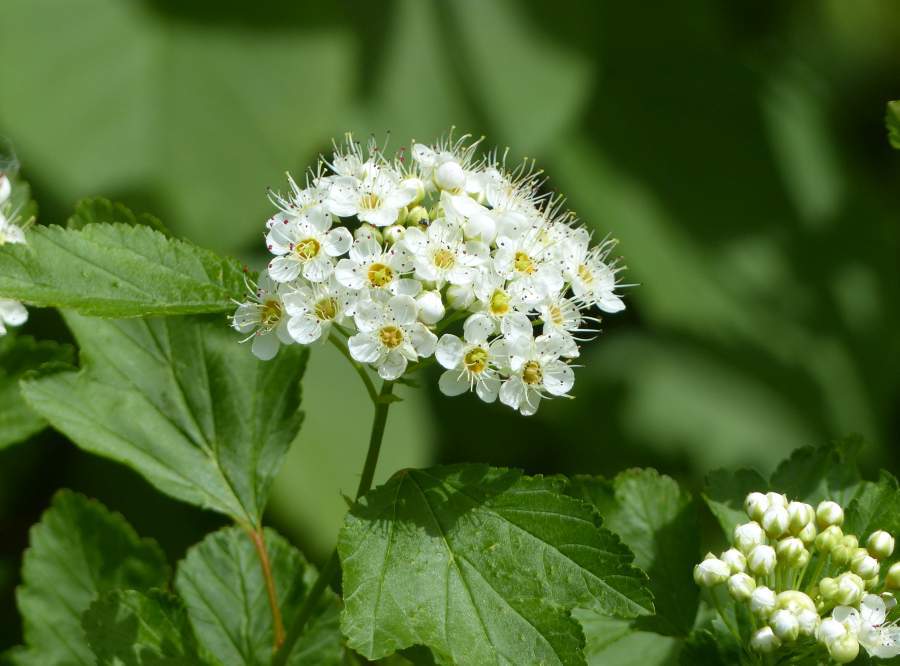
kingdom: Plantae
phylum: Tracheophyta
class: Magnoliopsida
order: Rosales
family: Rosaceae
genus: Physocarpus
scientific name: Physocarpus opulifolius
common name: Ninebark
